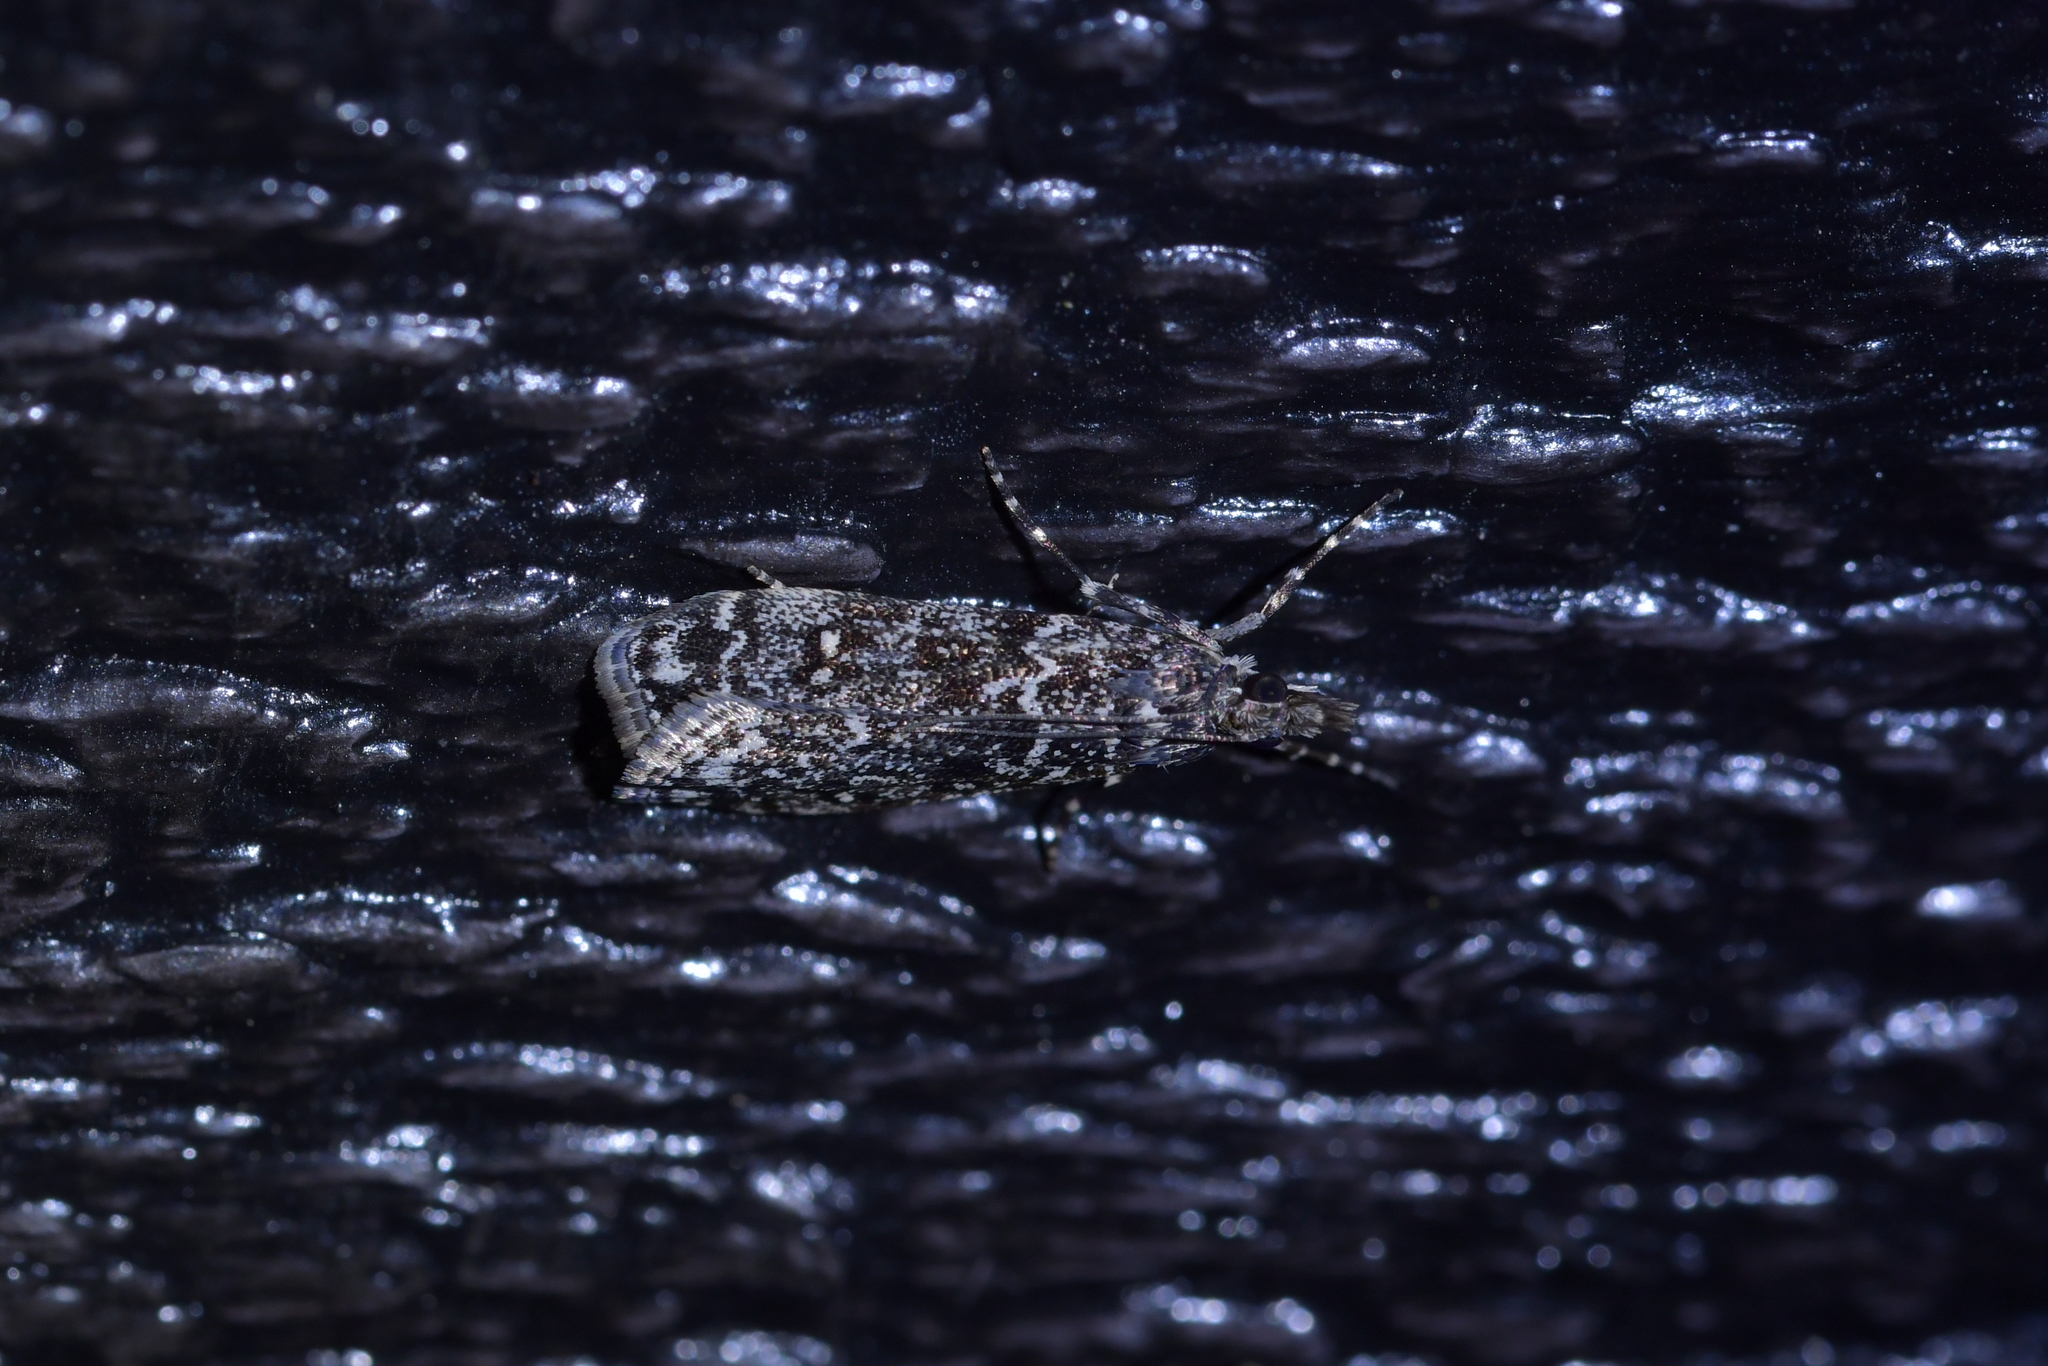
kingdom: Animalia
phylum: Arthropoda
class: Insecta
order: Lepidoptera
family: Crambidae
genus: Eudonia
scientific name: Eudonia philerga
